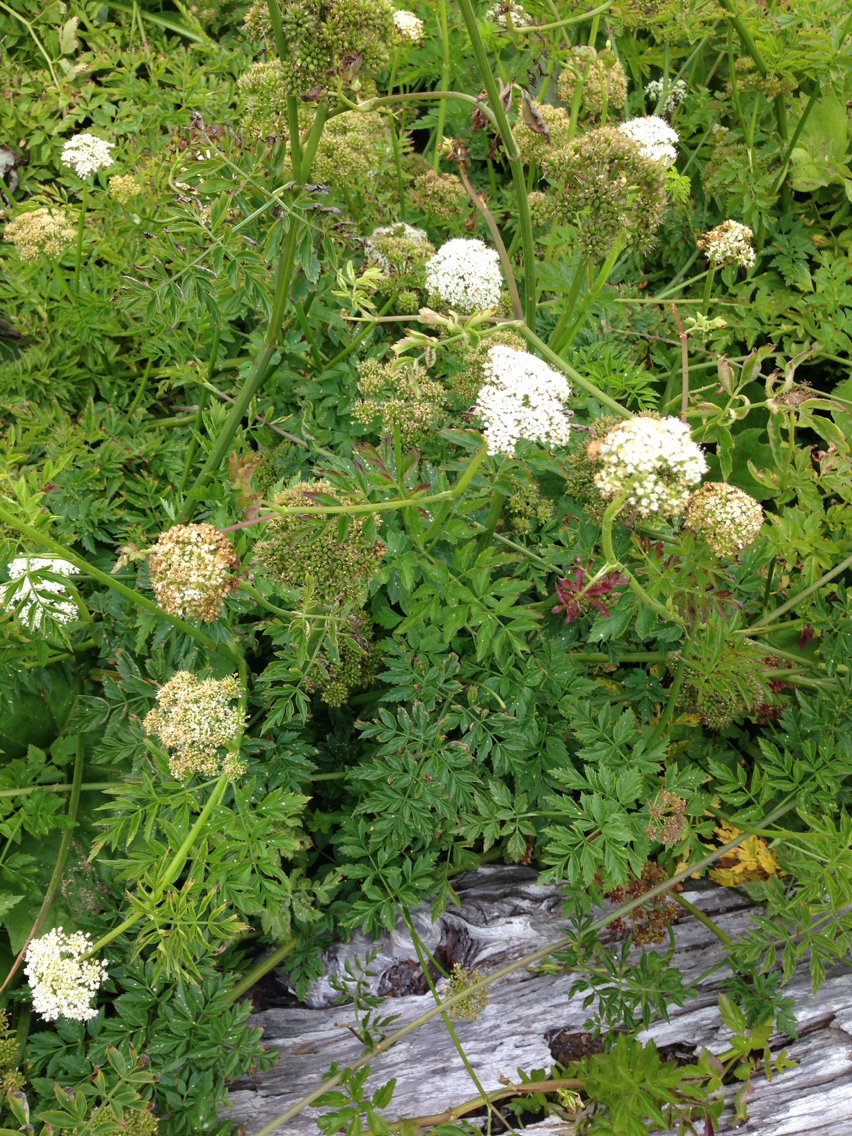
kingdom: Plantae
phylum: Tracheophyta
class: Magnoliopsida
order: Apiales
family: Apiaceae
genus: Oenanthe
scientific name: Oenanthe sarmentosa
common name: American water-parsley
